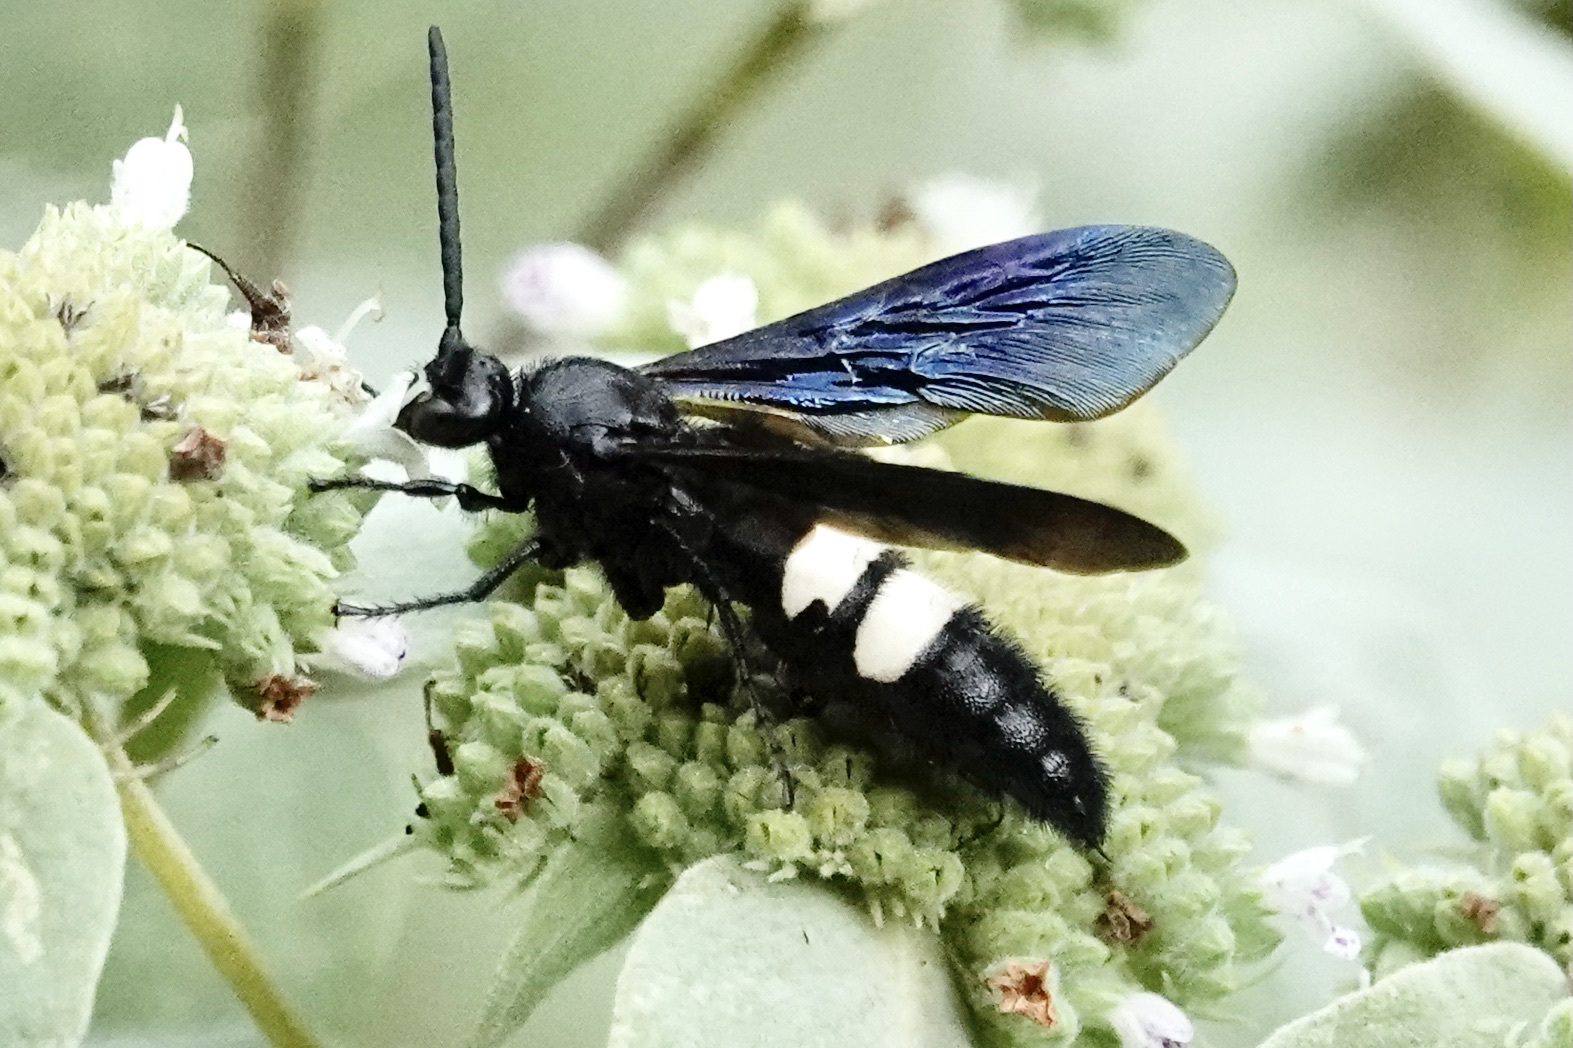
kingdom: Animalia
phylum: Arthropoda
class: Insecta
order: Hymenoptera
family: Scoliidae
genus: Scolia
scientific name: Scolia bicincta
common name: Double-banded scoliid wasp
